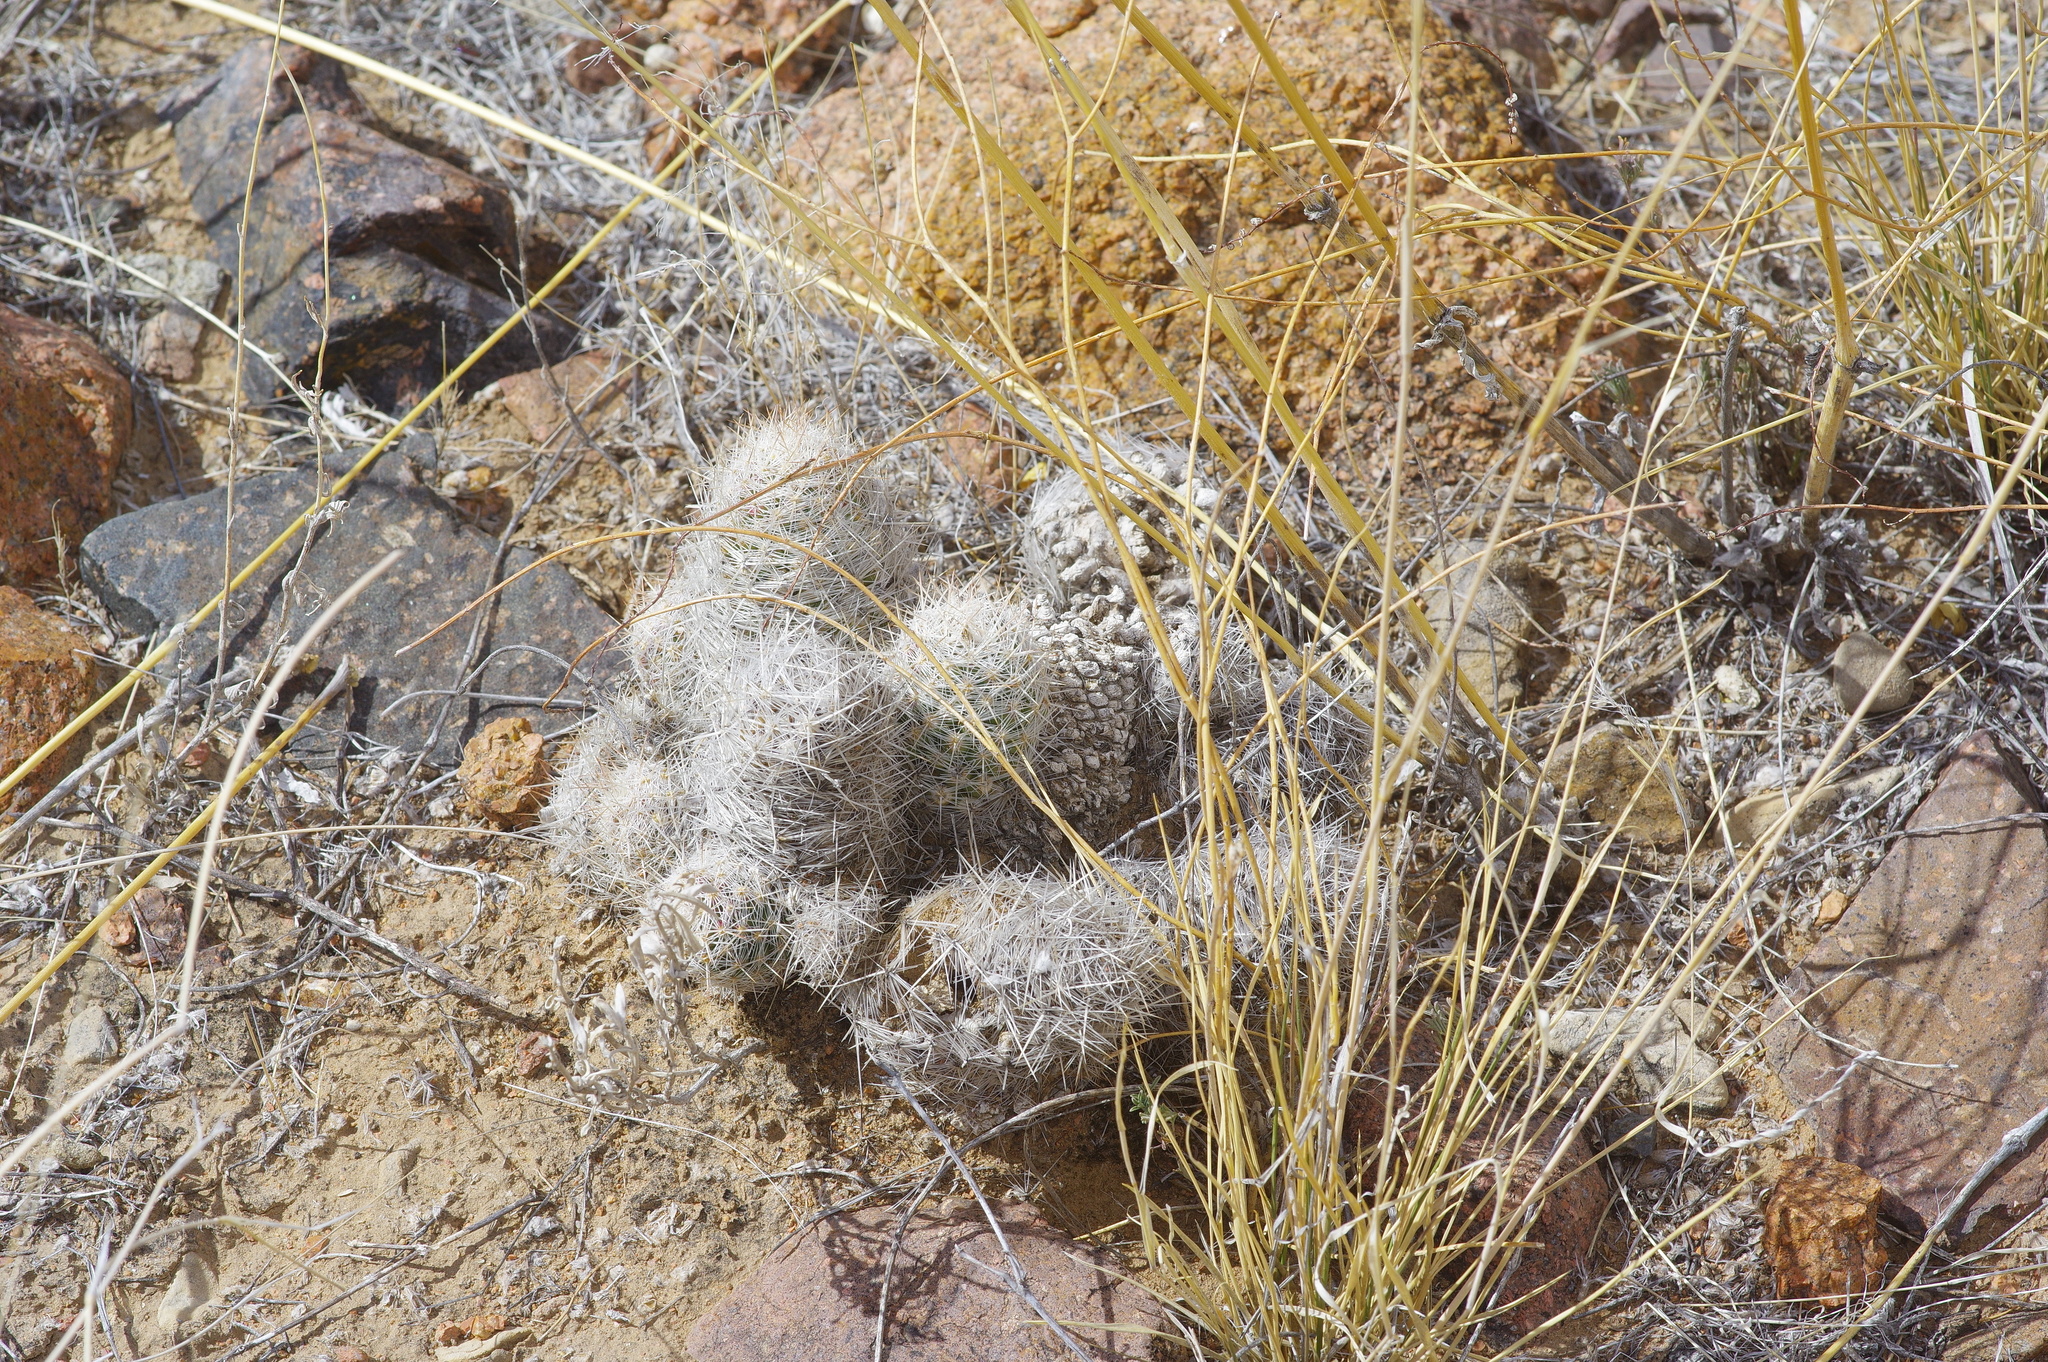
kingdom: Plantae
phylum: Tracheophyta
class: Magnoliopsida
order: Caryophyllales
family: Cactaceae
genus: Pelecyphora
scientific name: Pelecyphora tuberculosa
